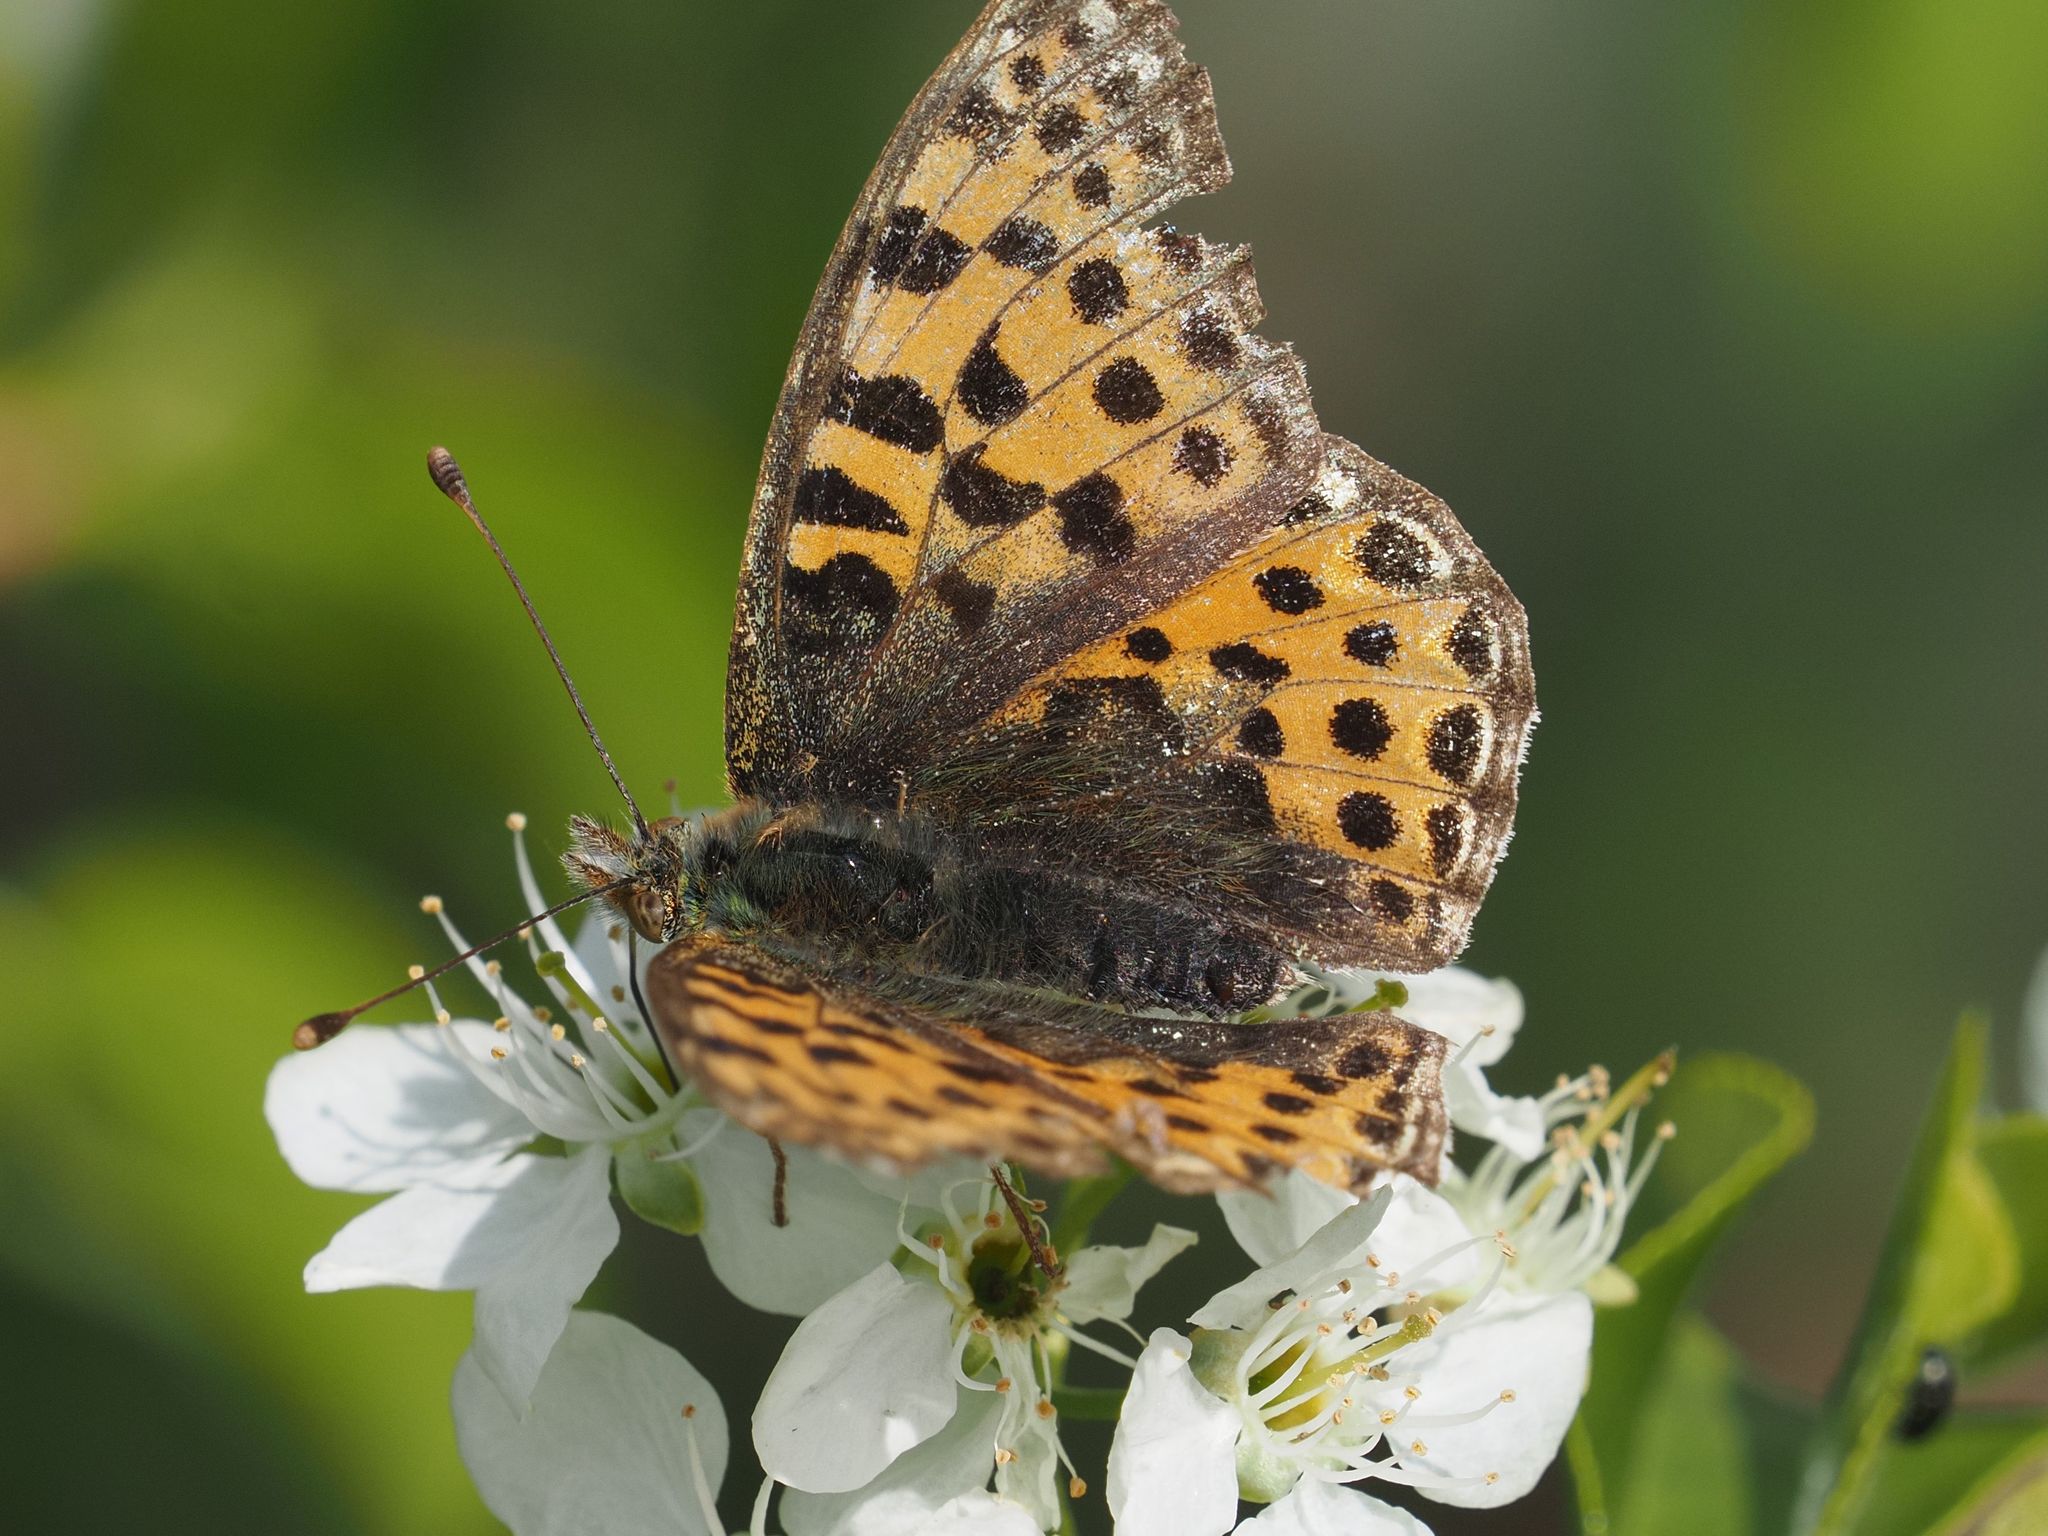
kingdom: Animalia
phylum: Arthropoda
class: Insecta
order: Lepidoptera
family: Nymphalidae
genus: Issoria
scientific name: Issoria lathonia
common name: Queen of spain fritillary
